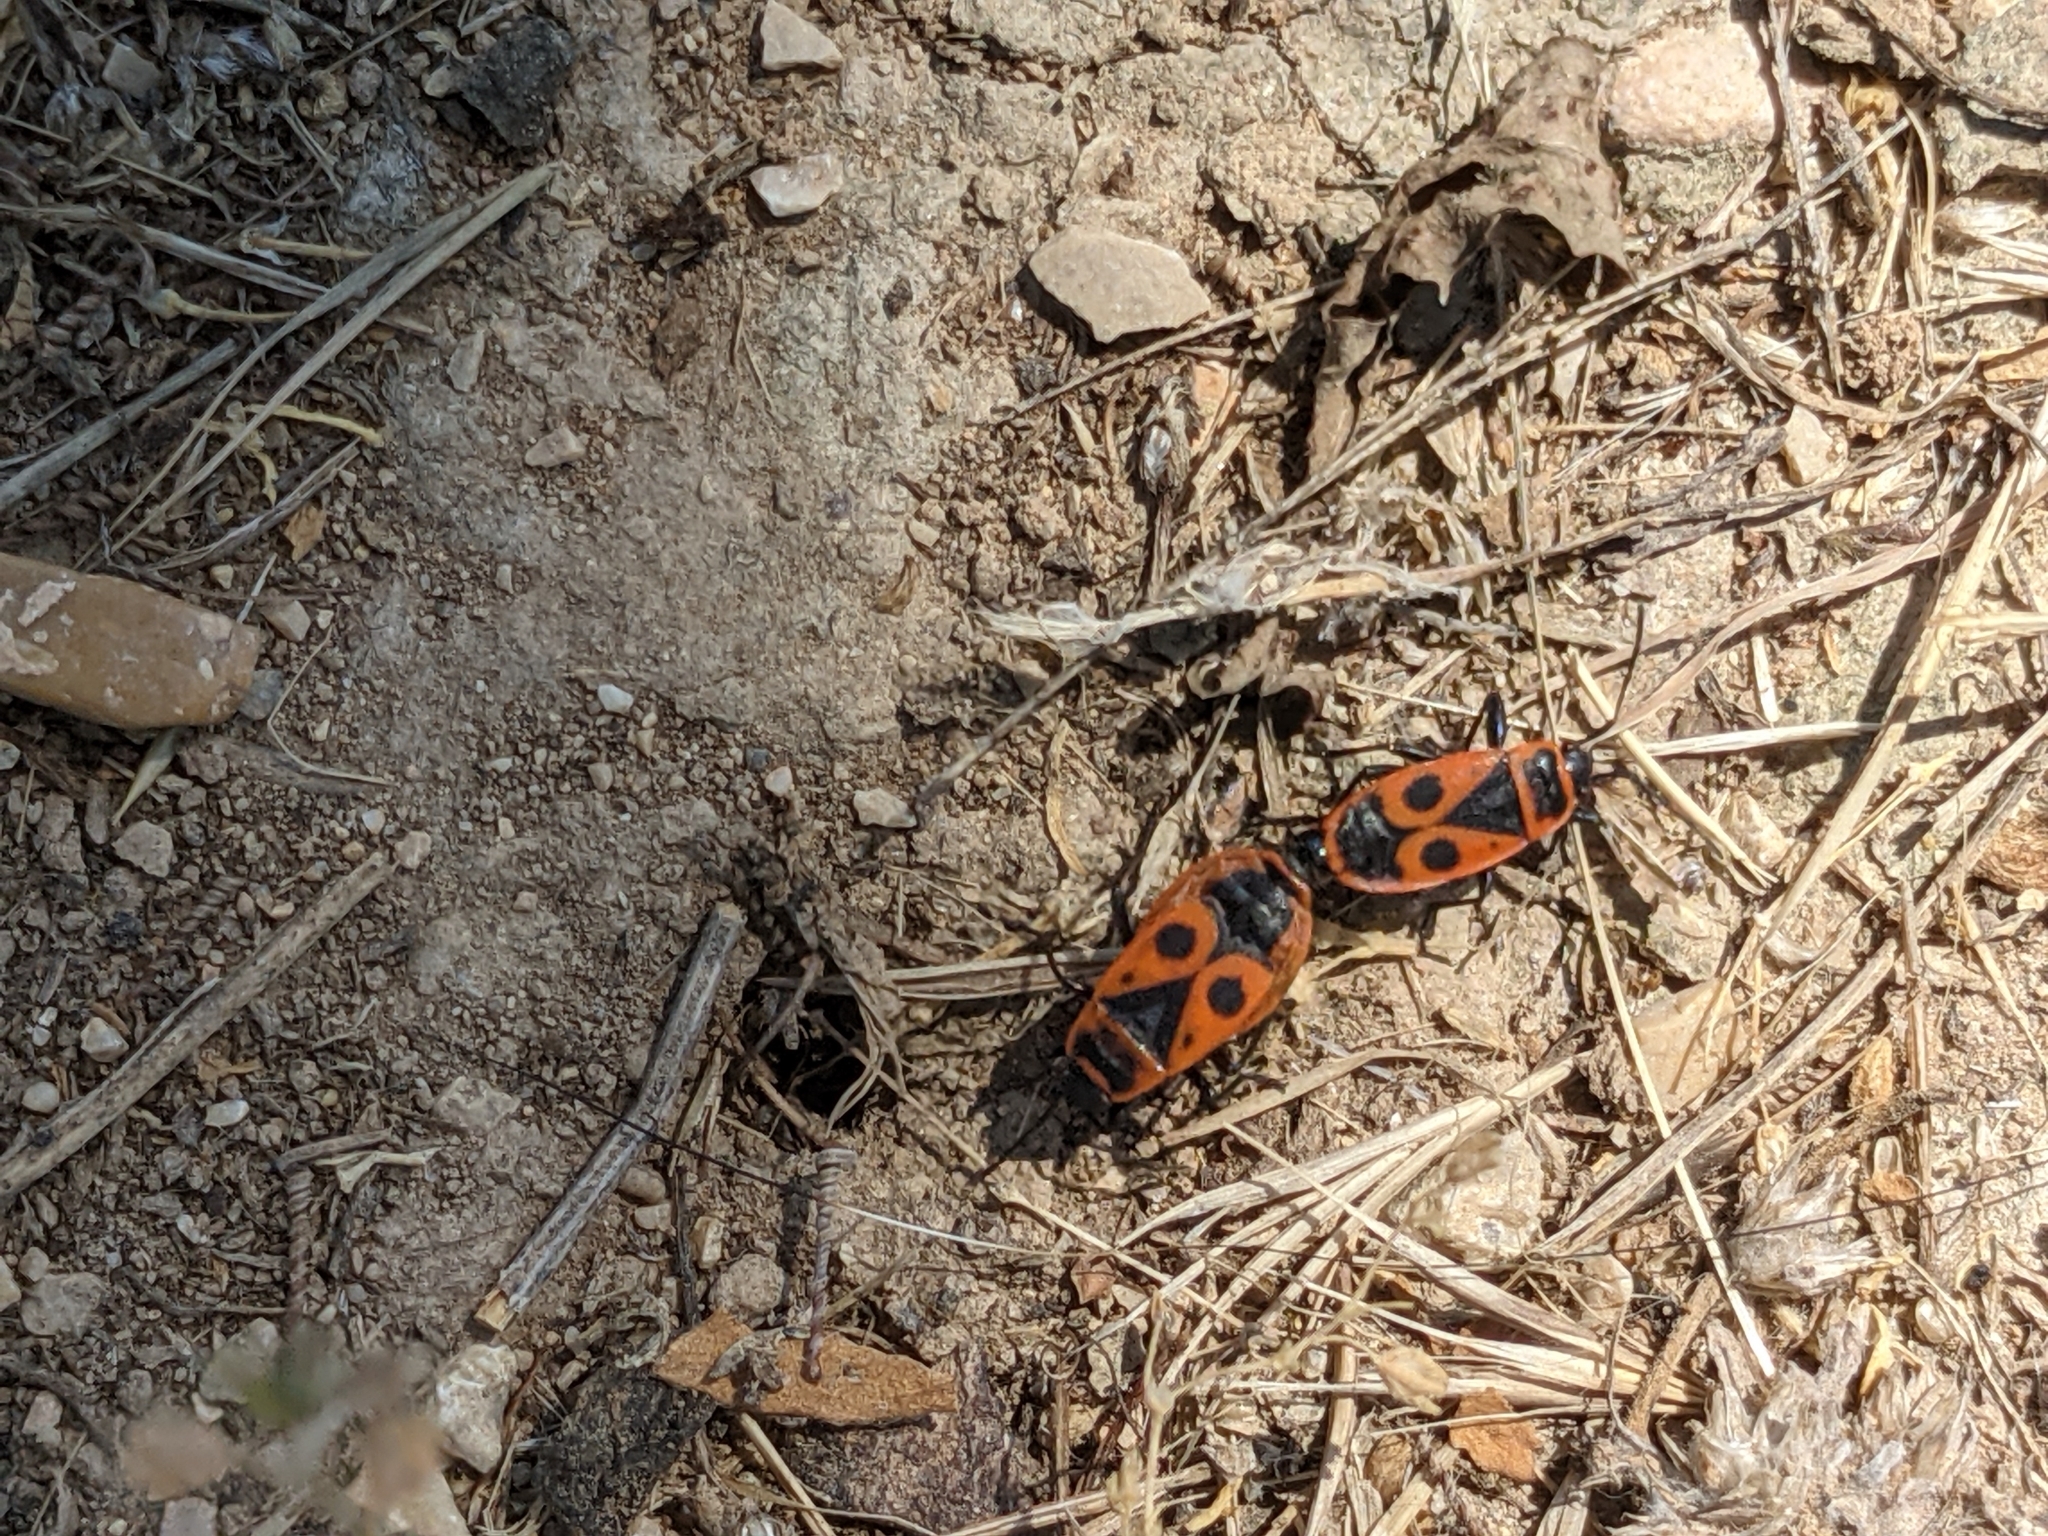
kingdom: Animalia
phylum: Arthropoda
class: Insecta
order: Hemiptera
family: Pyrrhocoridae
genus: Pyrrhocoris
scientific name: Pyrrhocoris apterus
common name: Firebug
